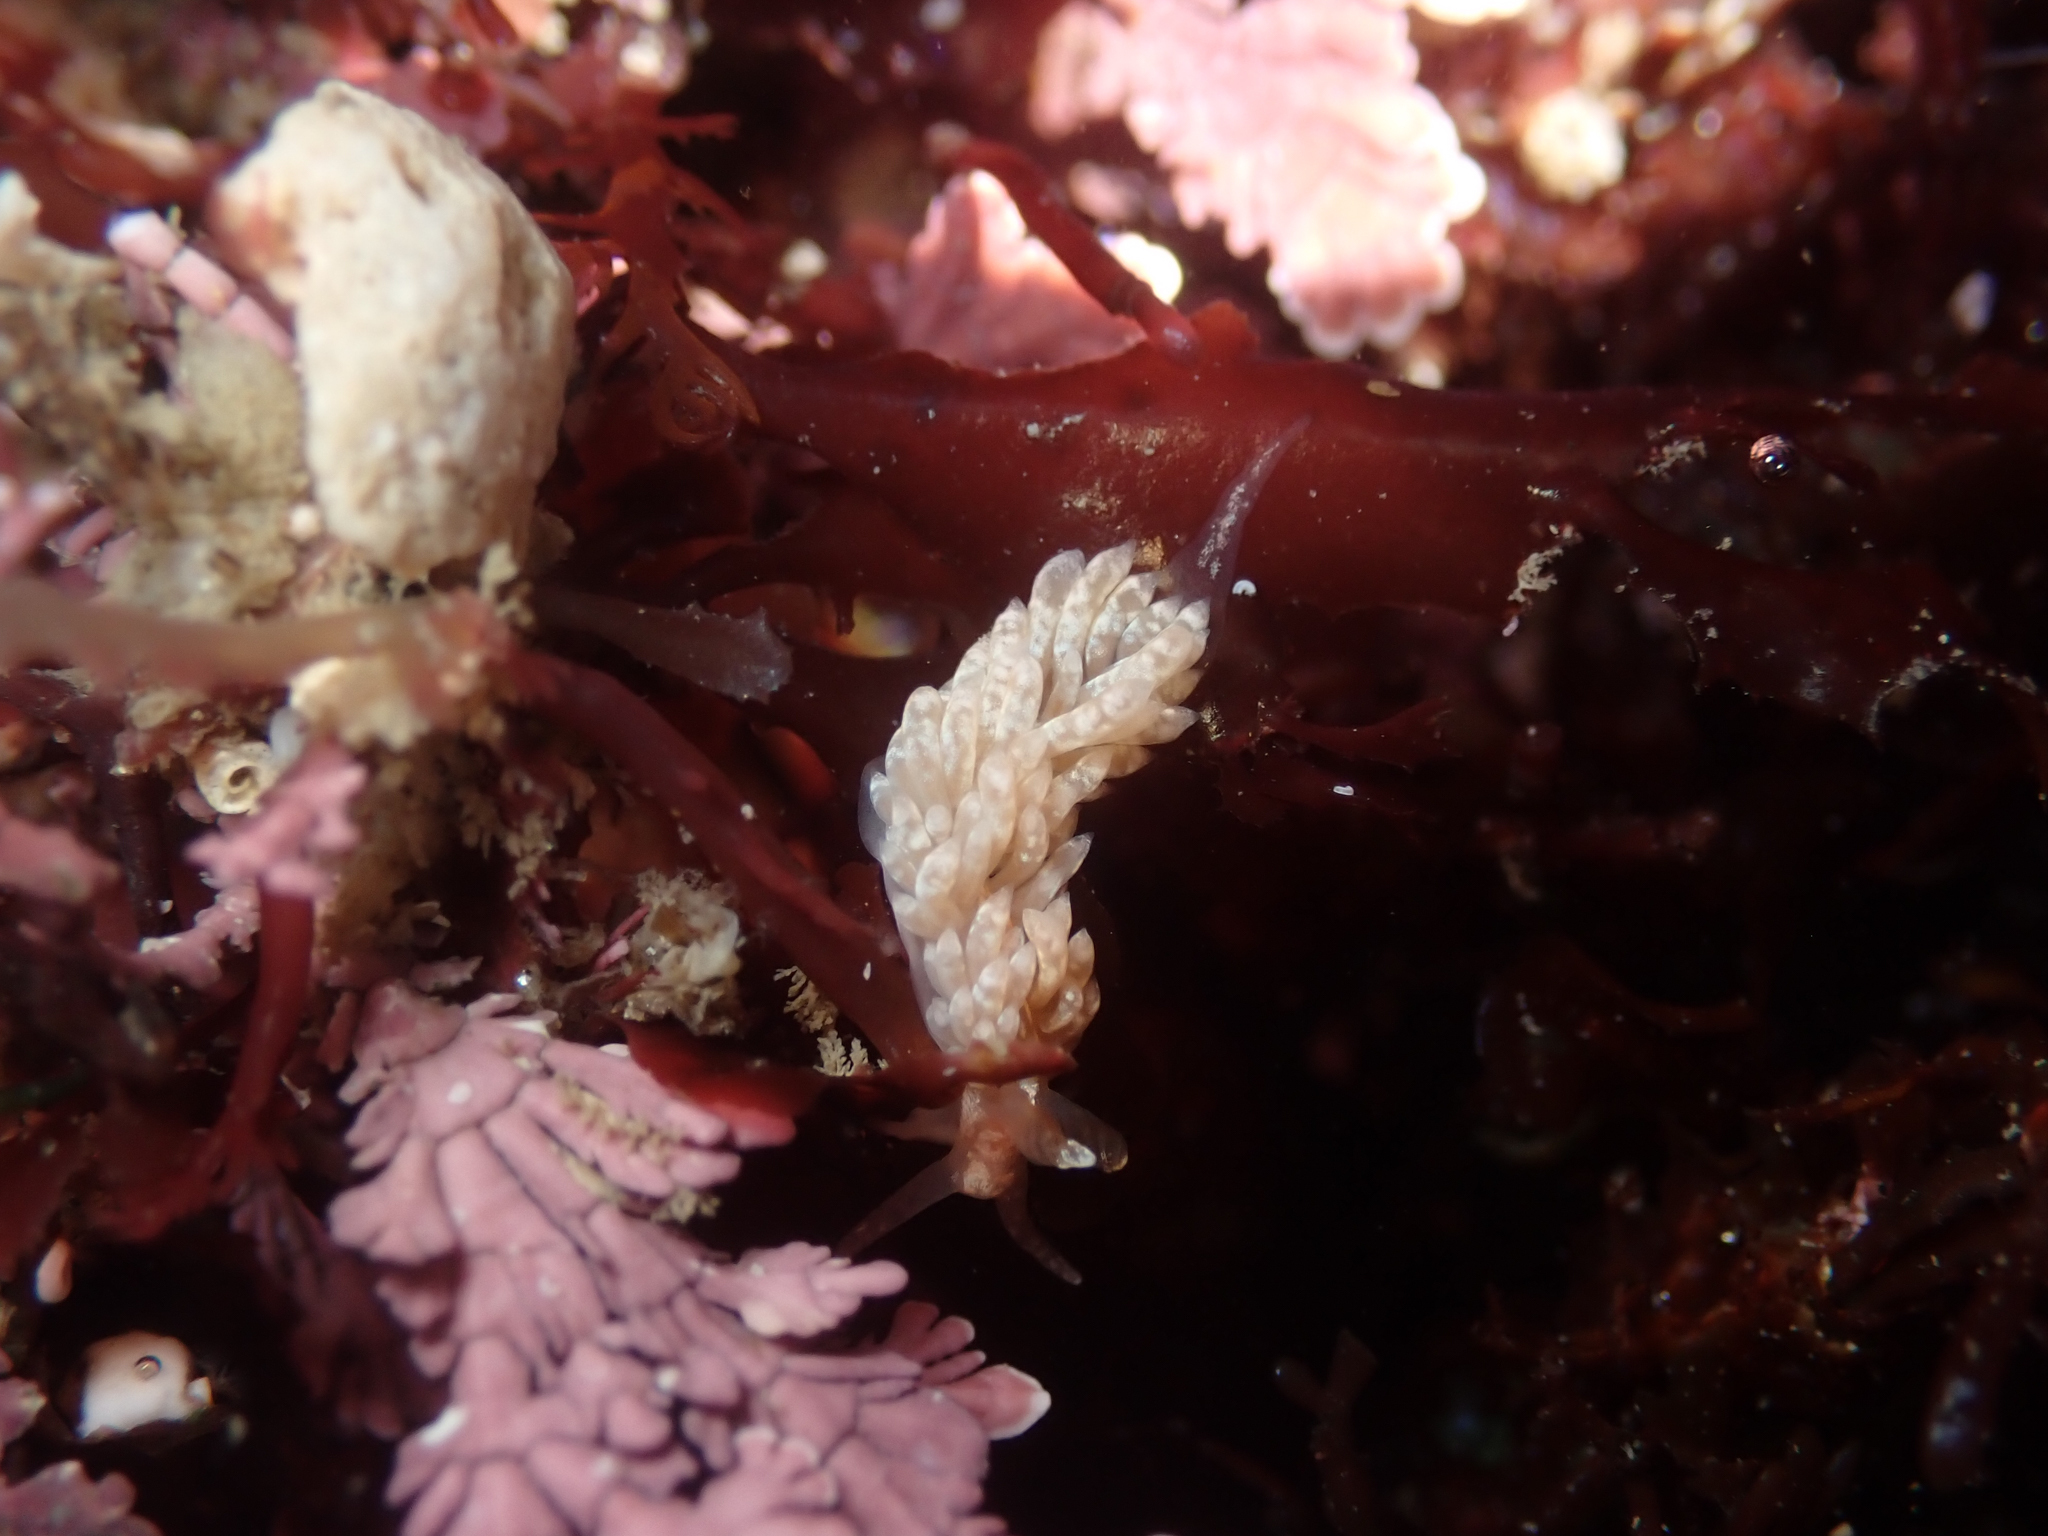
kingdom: Animalia
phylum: Mollusca
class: Gastropoda
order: Nudibranchia
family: Aeolidiidae
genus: Anteaeolidiella
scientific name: Anteaeolidiella chromosoma
